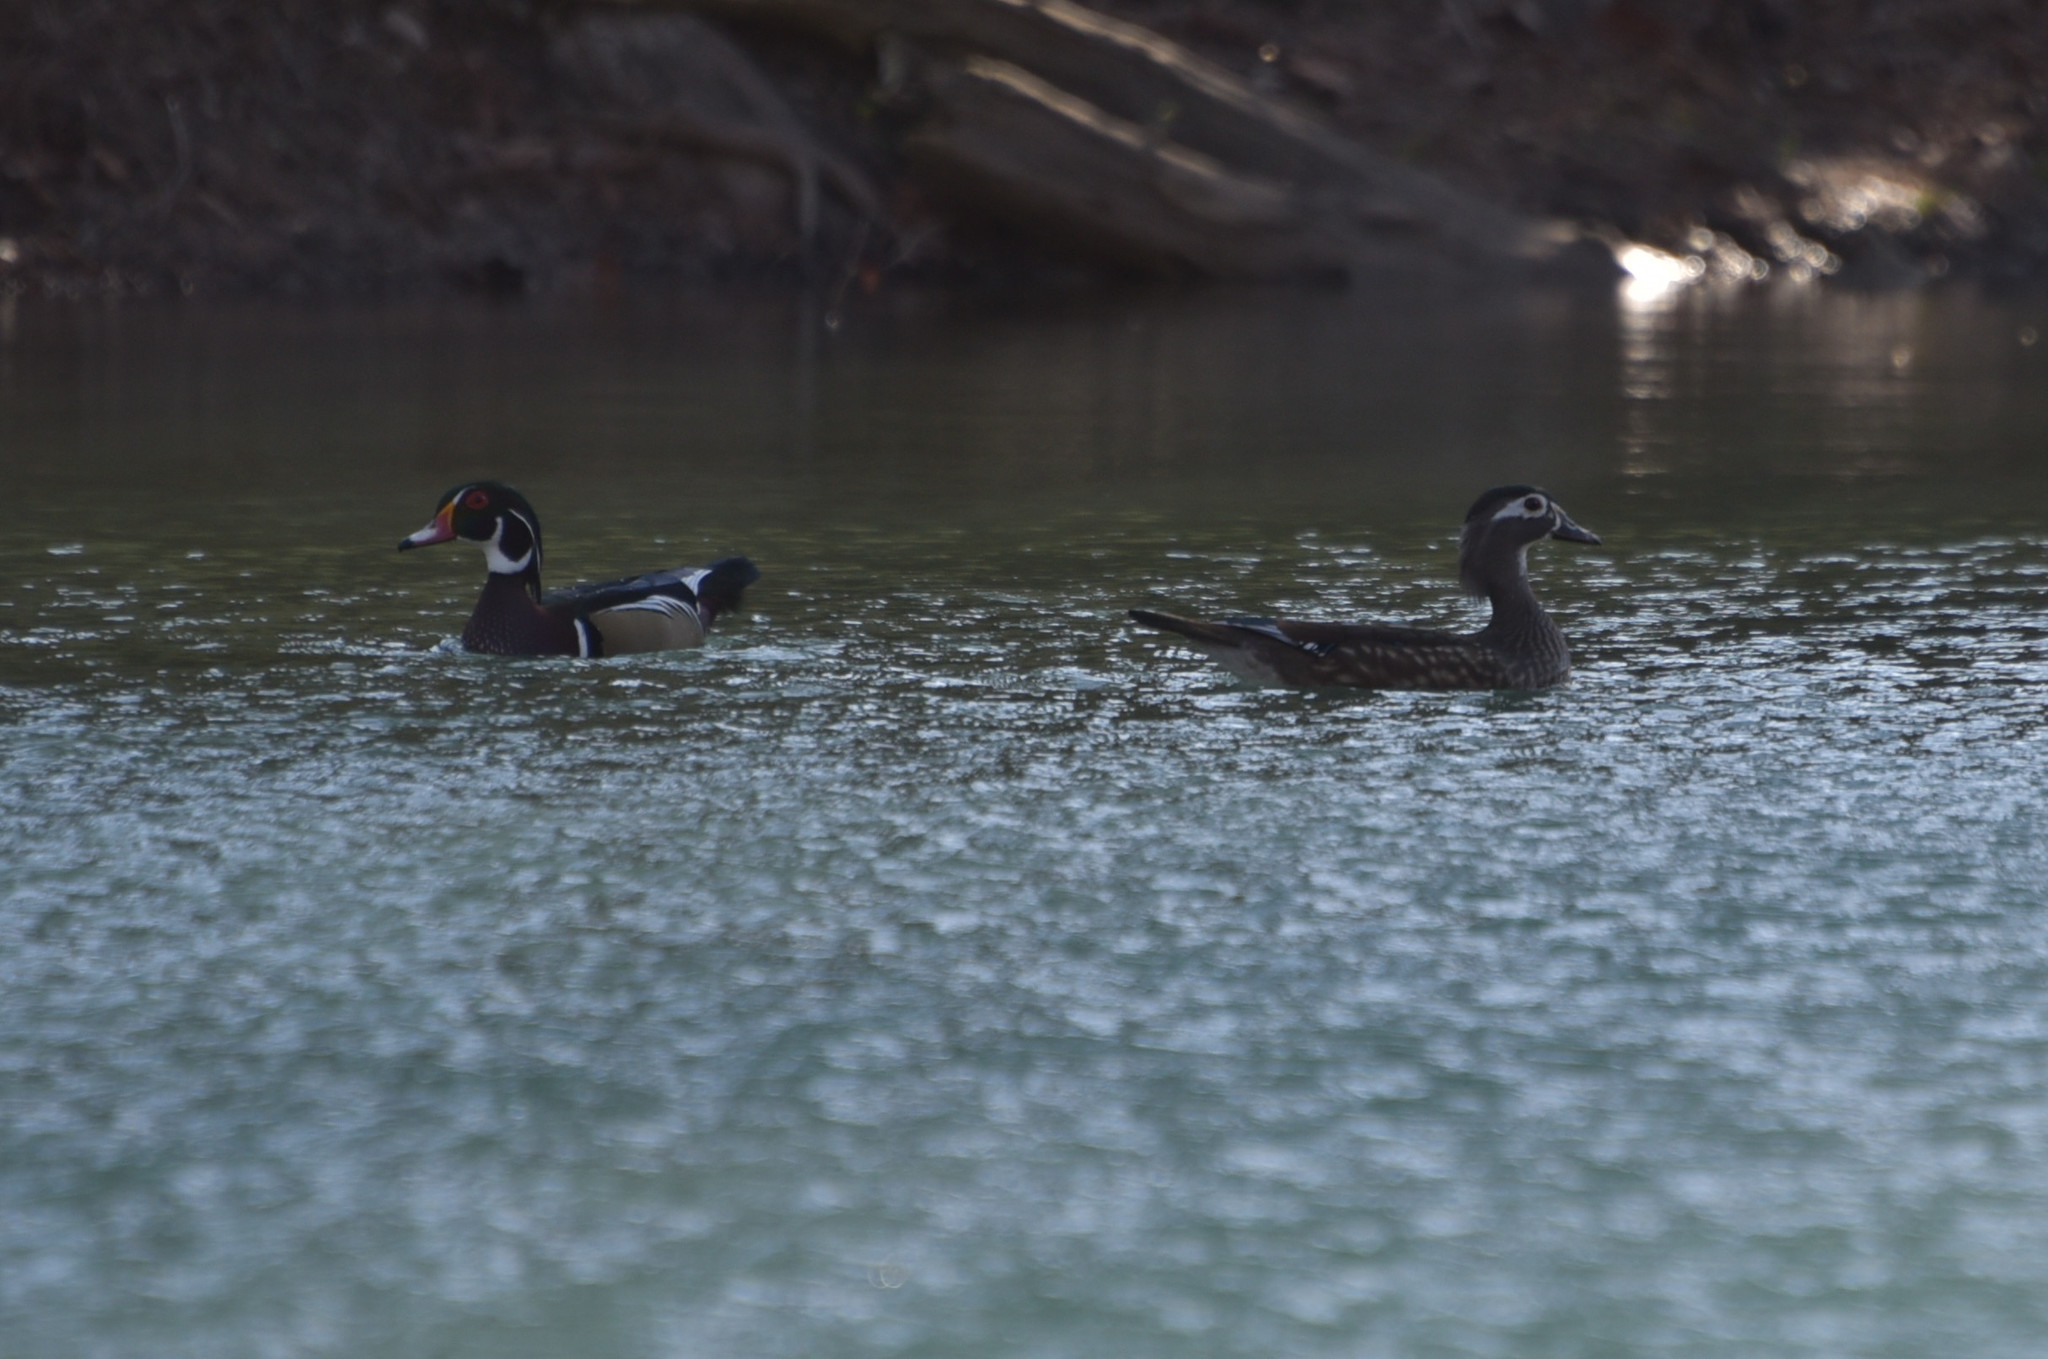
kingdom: Animalia
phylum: Chordata
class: Aves
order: Anseriformes
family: Anatidae
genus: Aix
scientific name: Aix sponsa
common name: Wood duck
